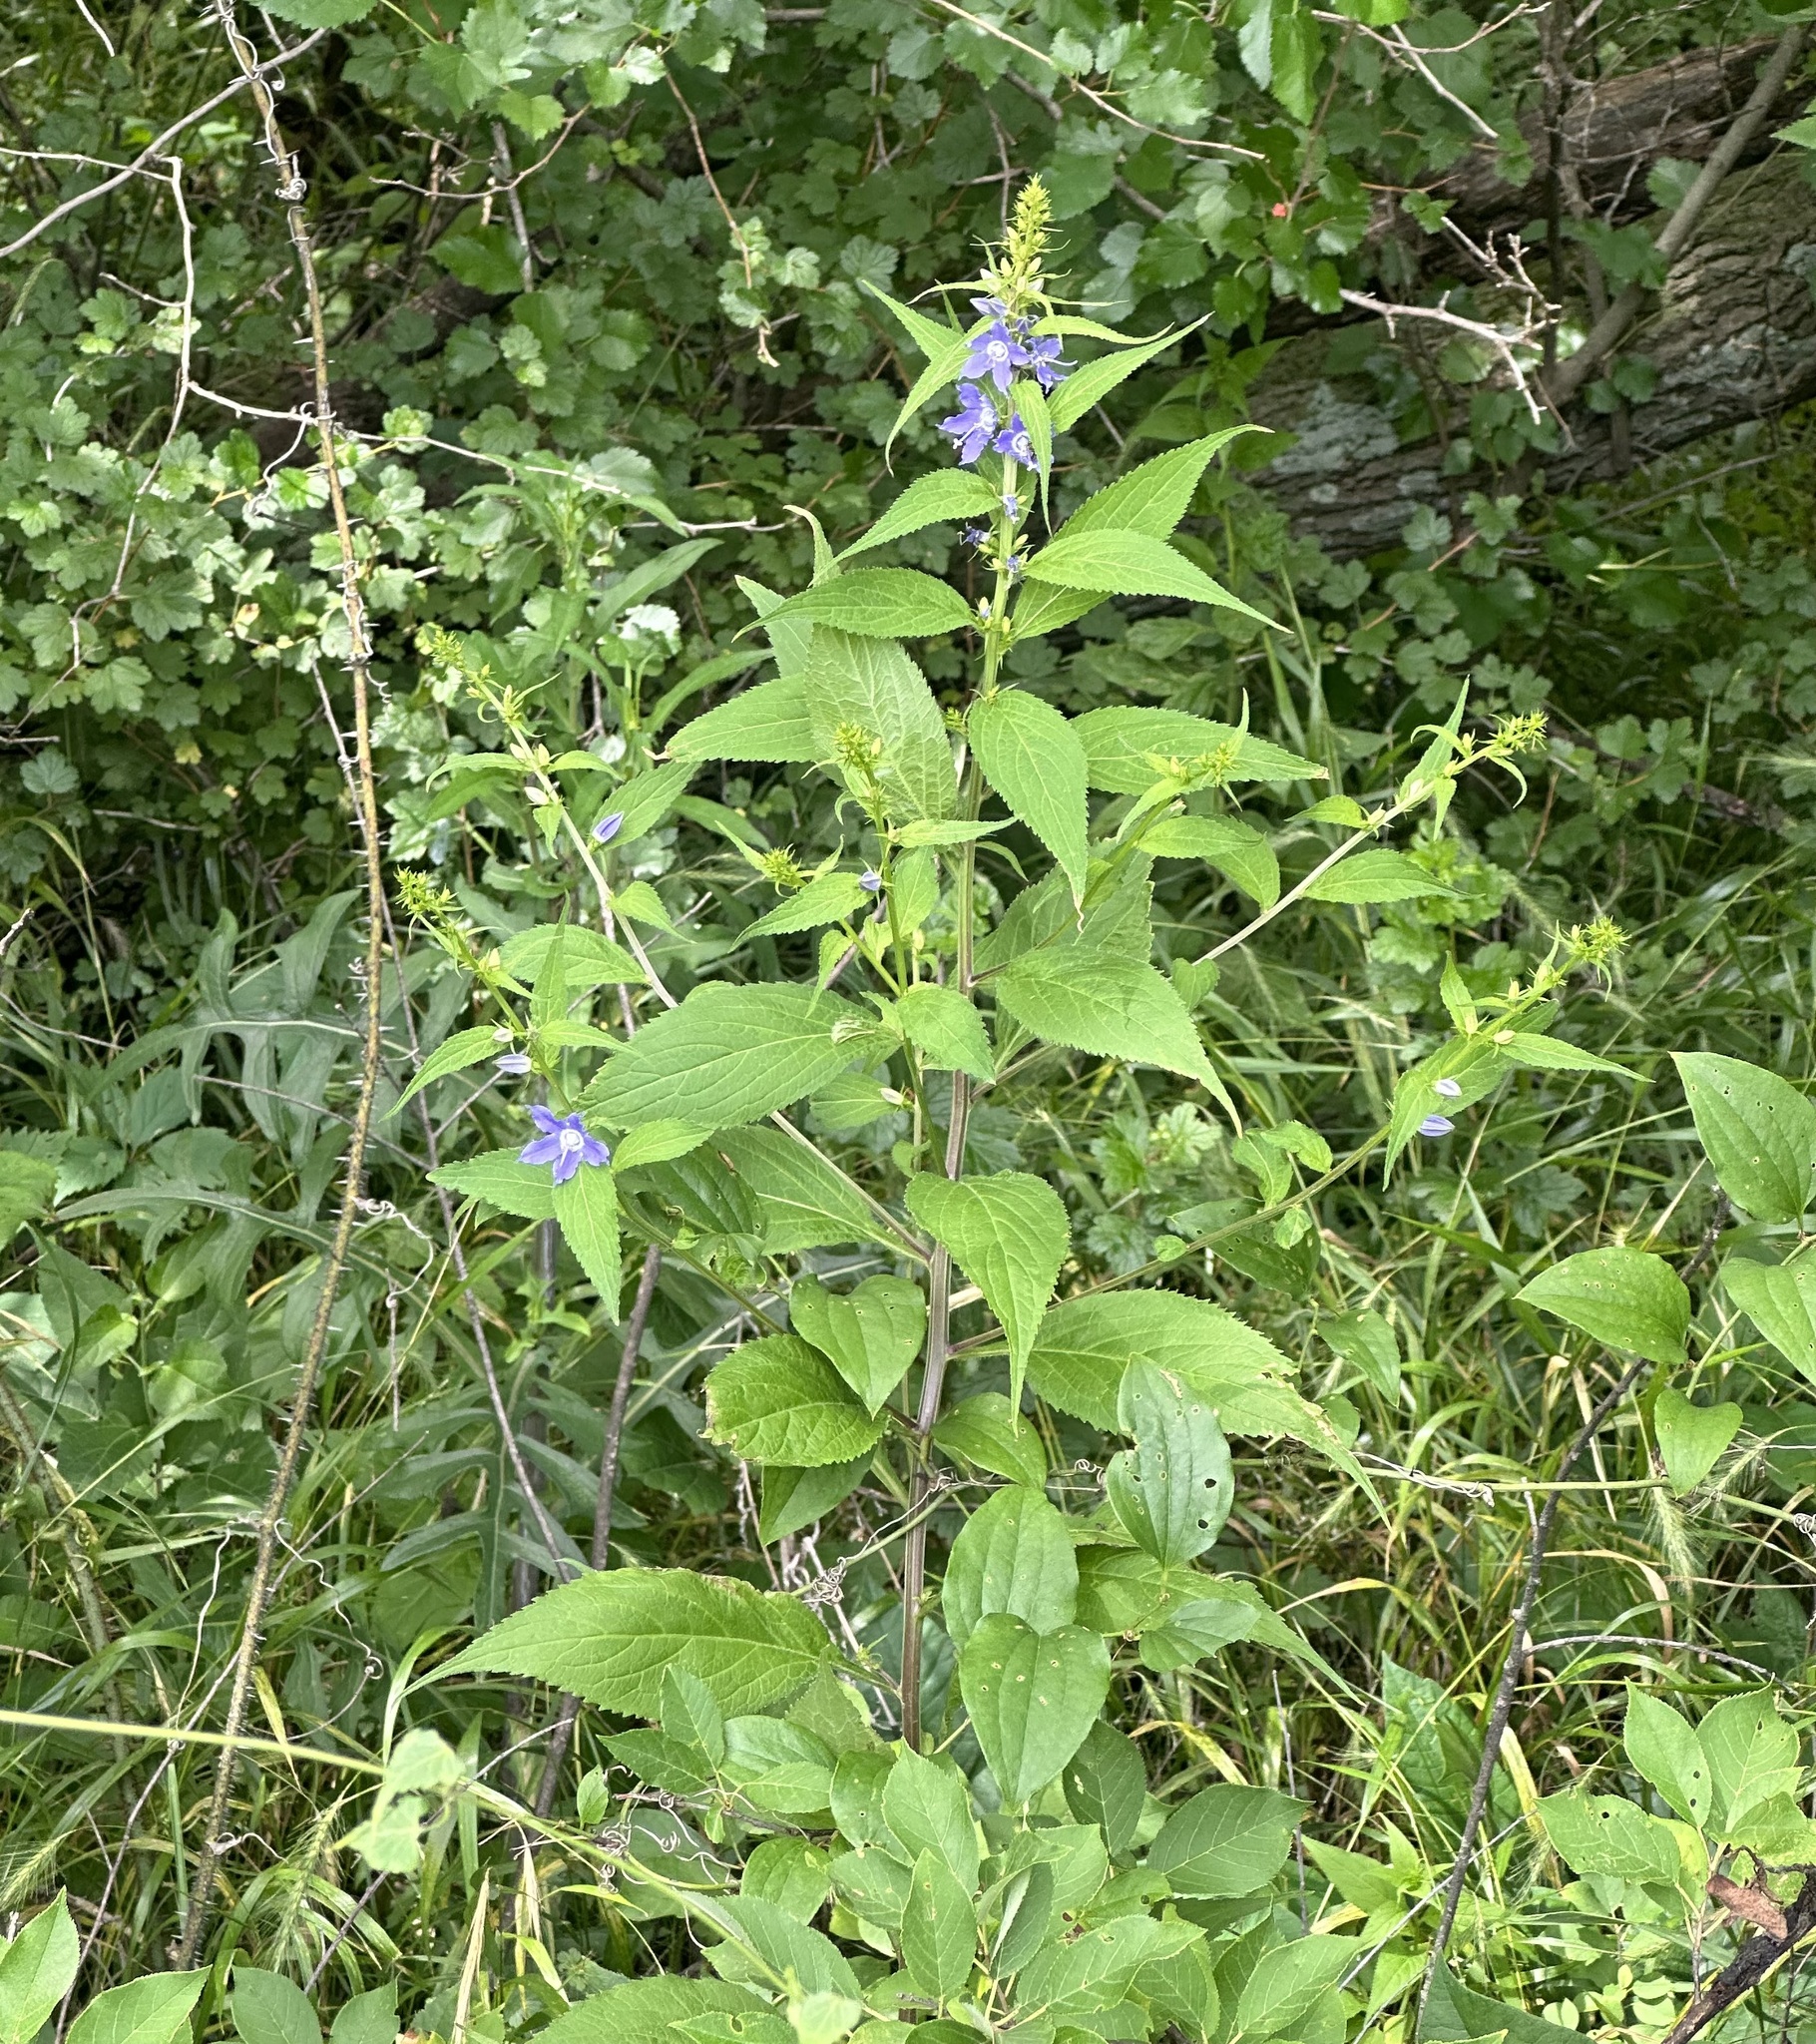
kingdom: Plantae
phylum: Tracheophyta
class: Magnoliopsida
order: Asterales
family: Campanulaceae
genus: Campanulastrum
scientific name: Campanulastrum americanum
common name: American bellflower
